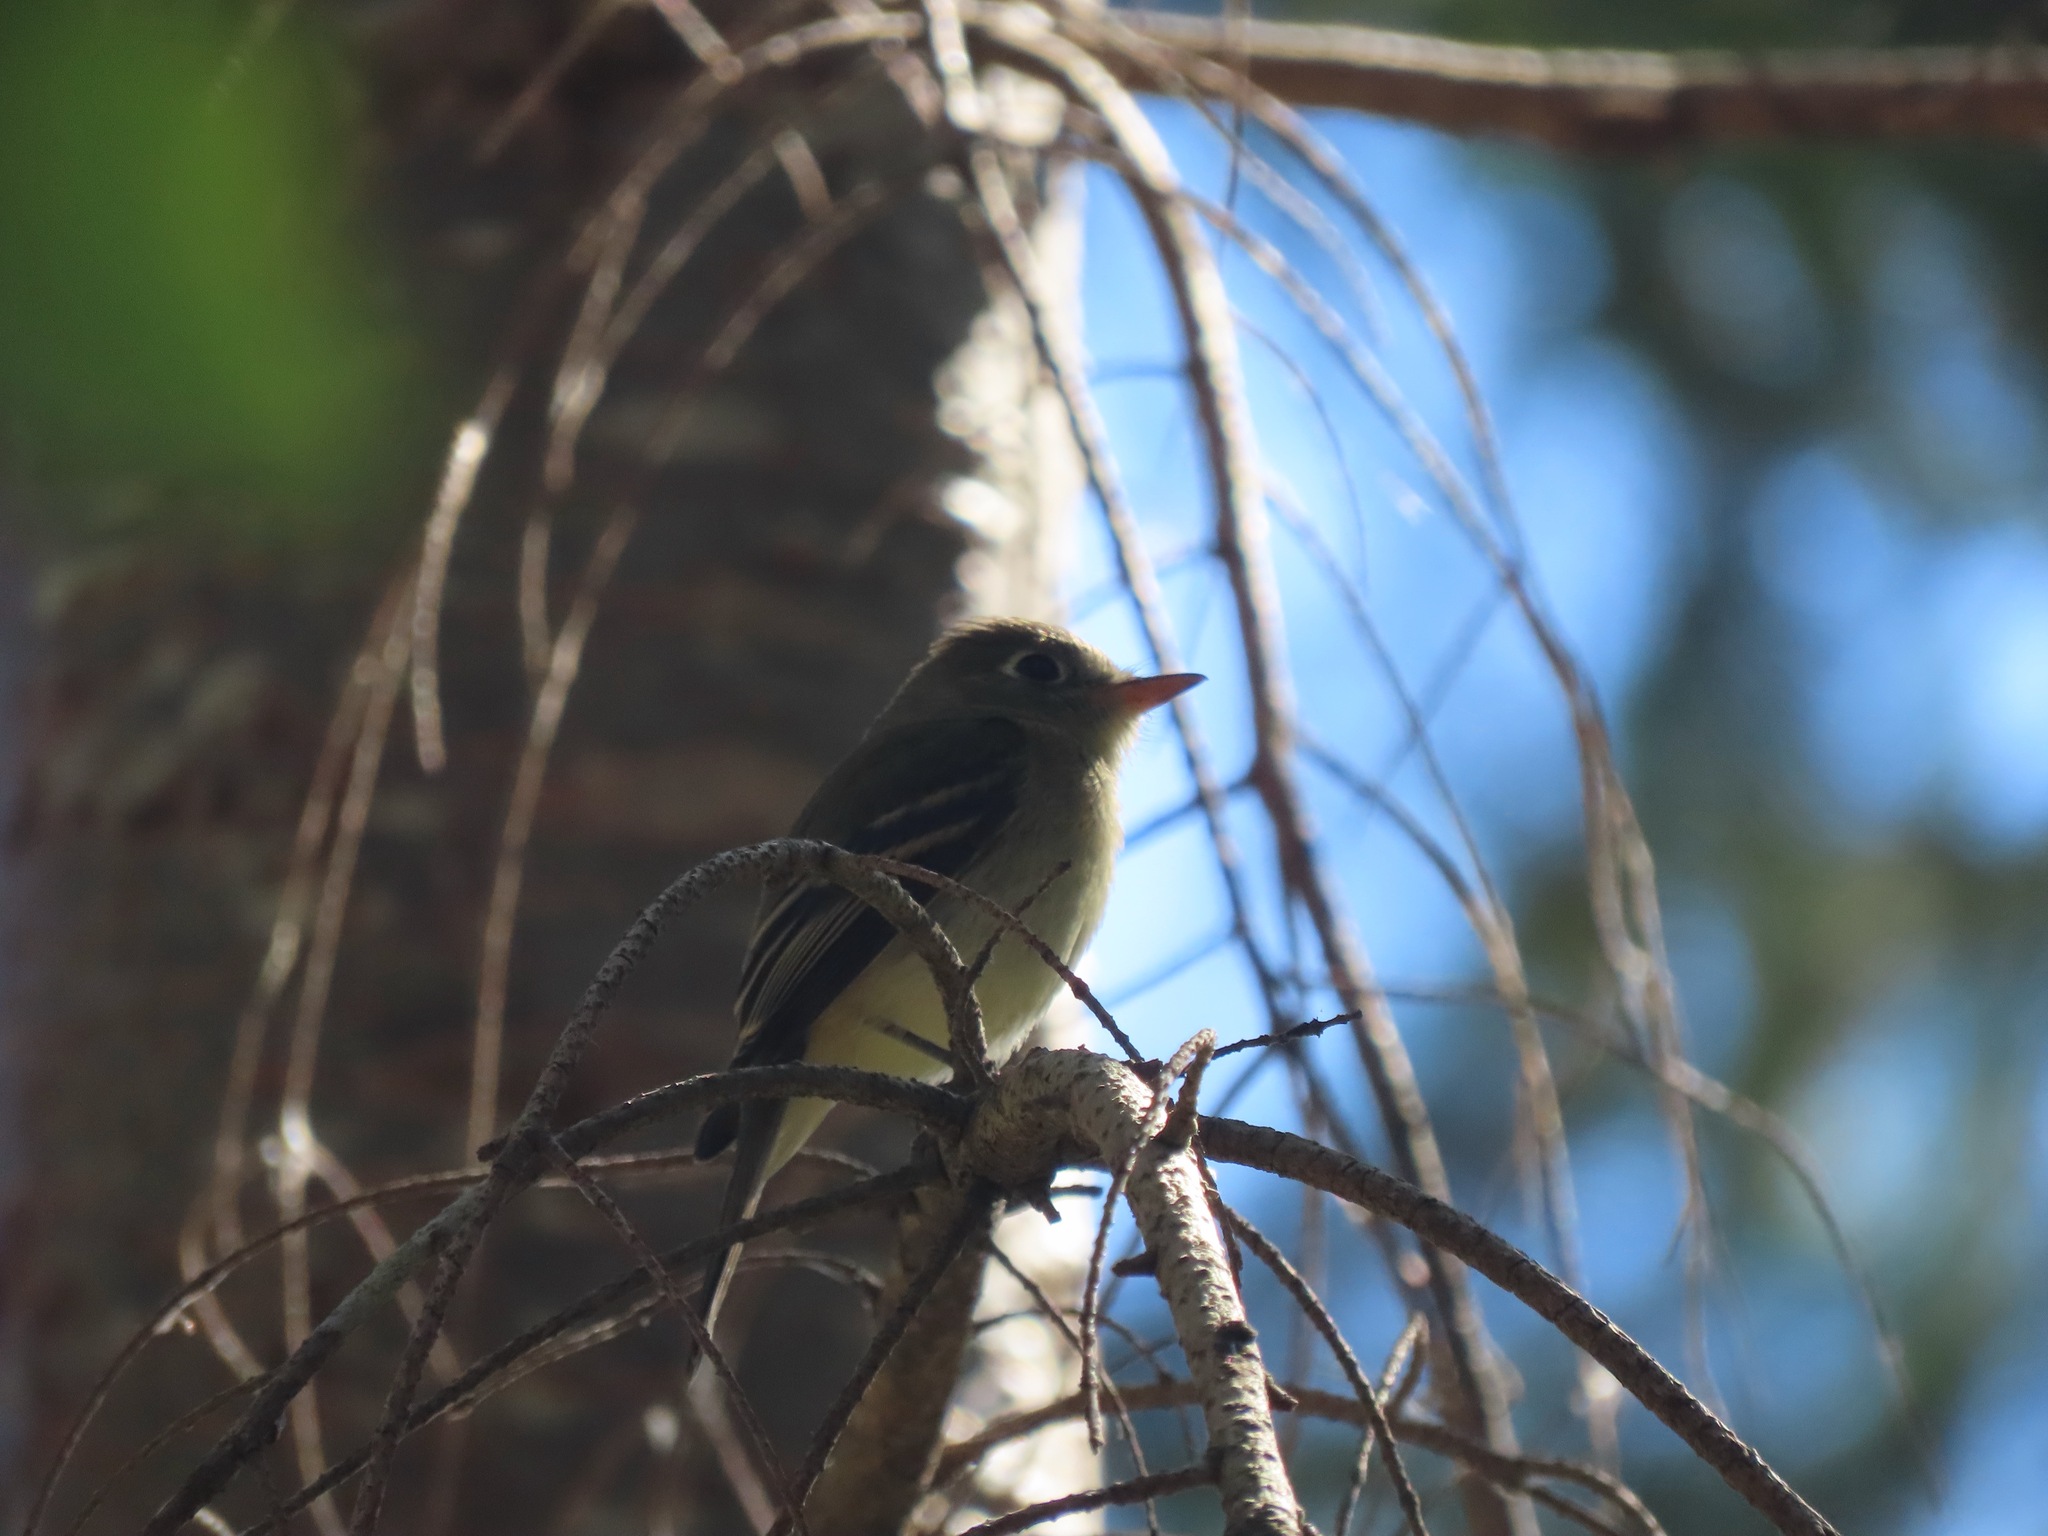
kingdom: Animalia
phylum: Chordata
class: Aves
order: Passeriformes
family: Tyrannidae
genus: Empidonax
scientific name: Empidonax difficilis
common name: Pacific-slope flycatcher
